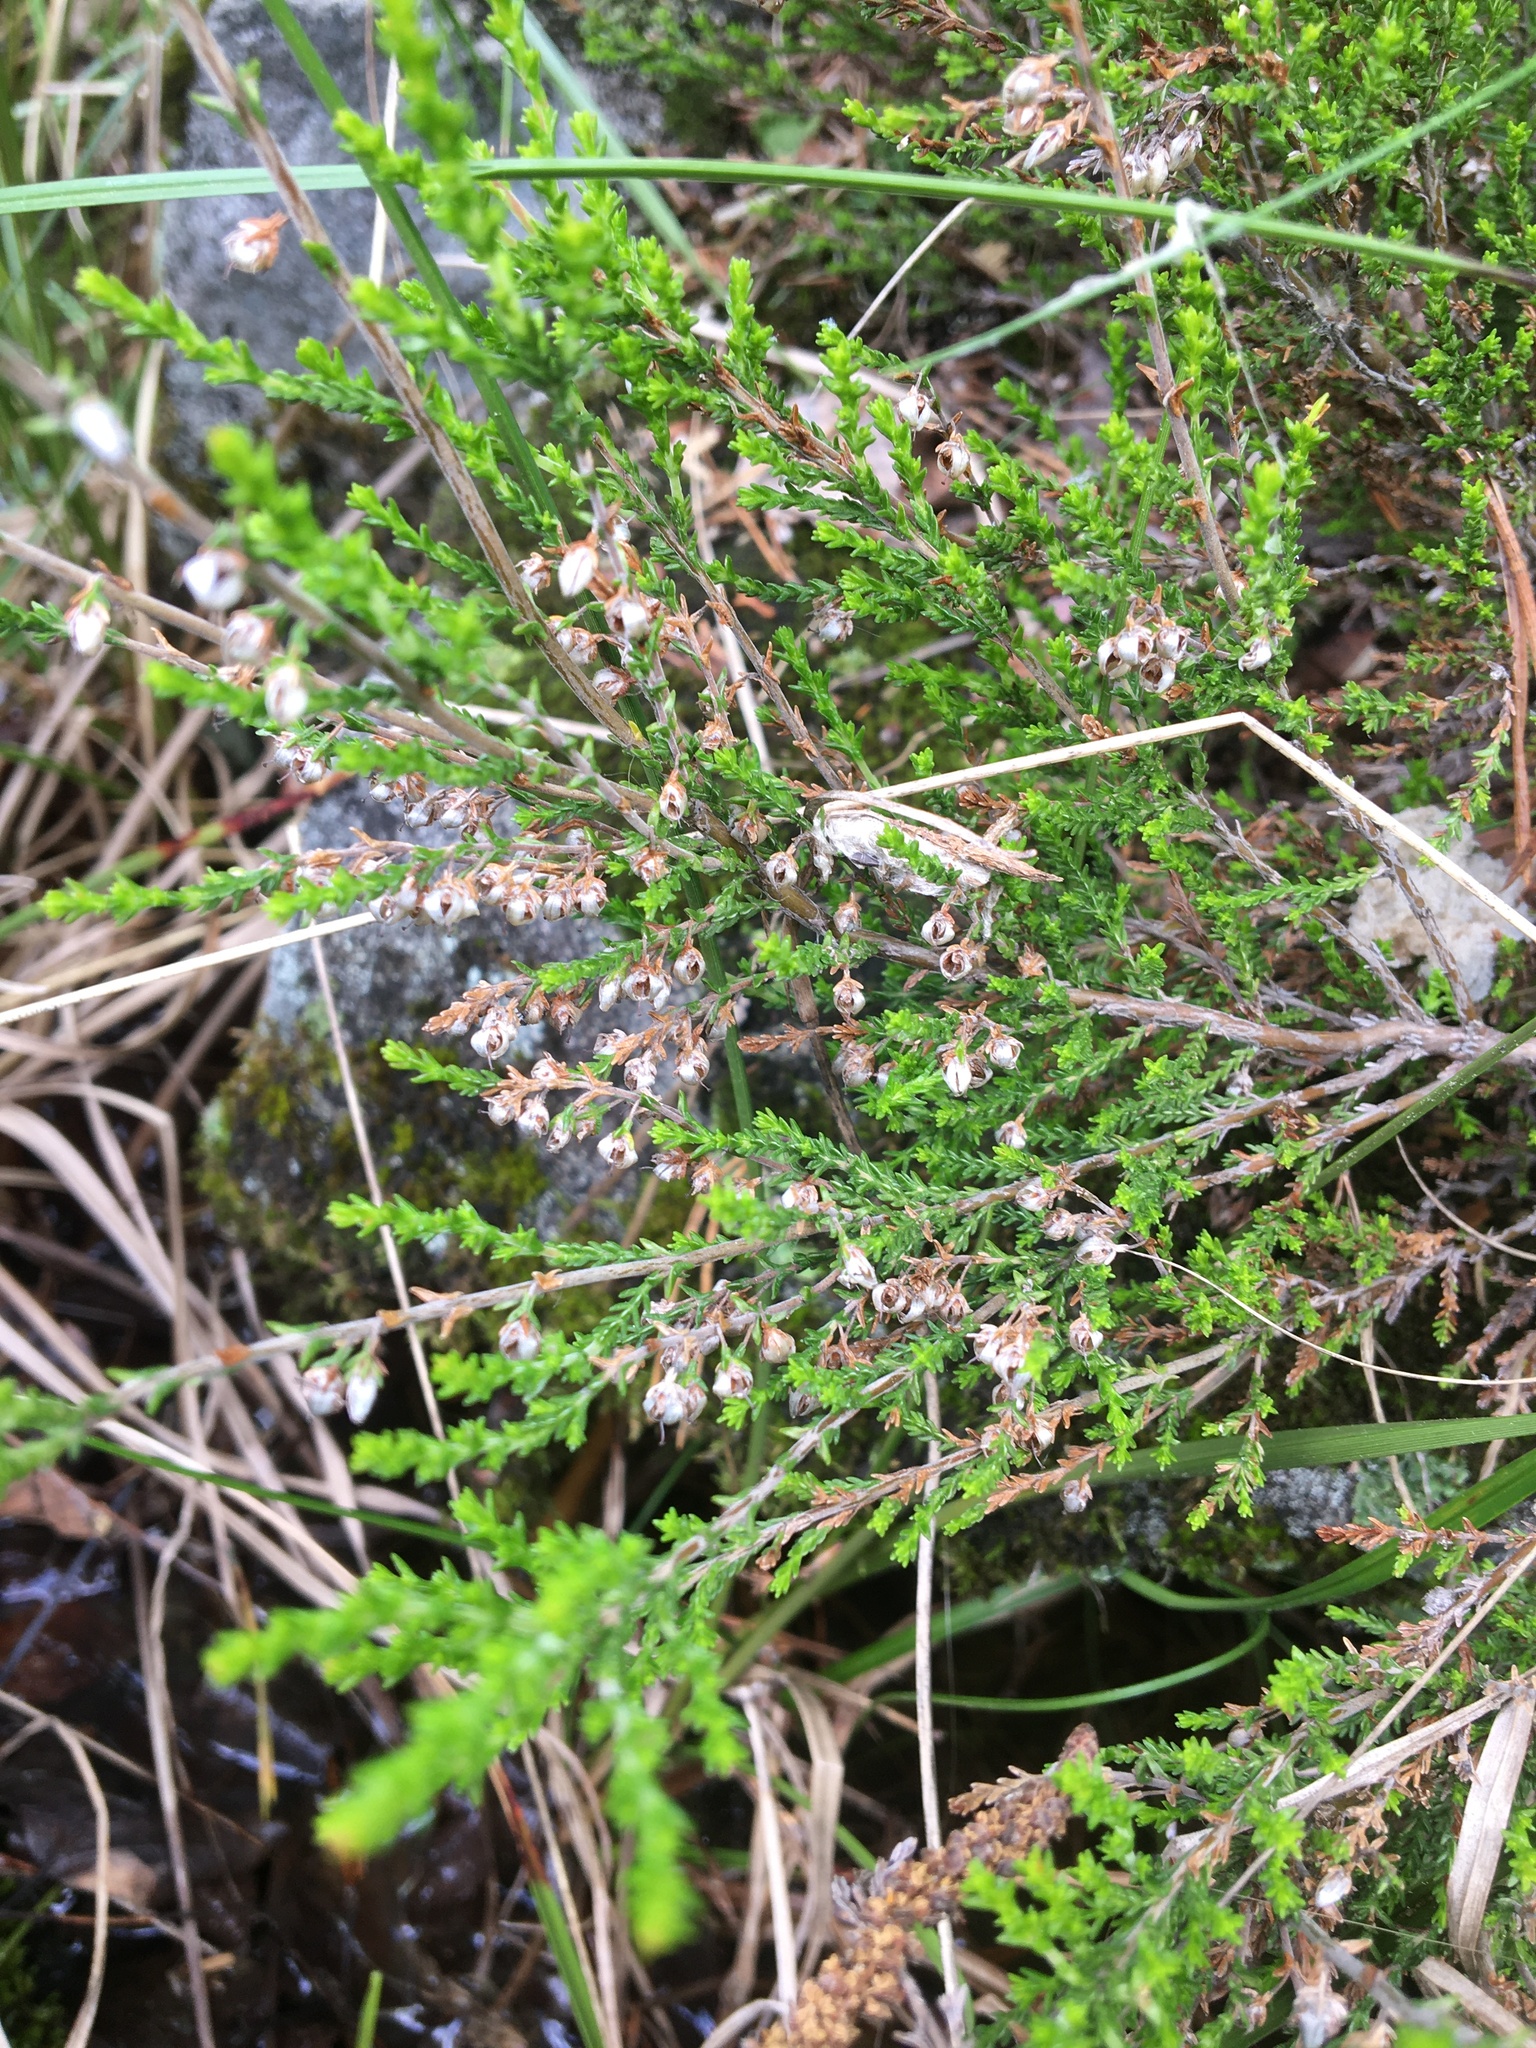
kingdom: Plantae
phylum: Tracheophyta
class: Magnoliopsida
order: Ericales
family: Ericaceae
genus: Calluna
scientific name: Calluna vulgaris
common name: Heather
